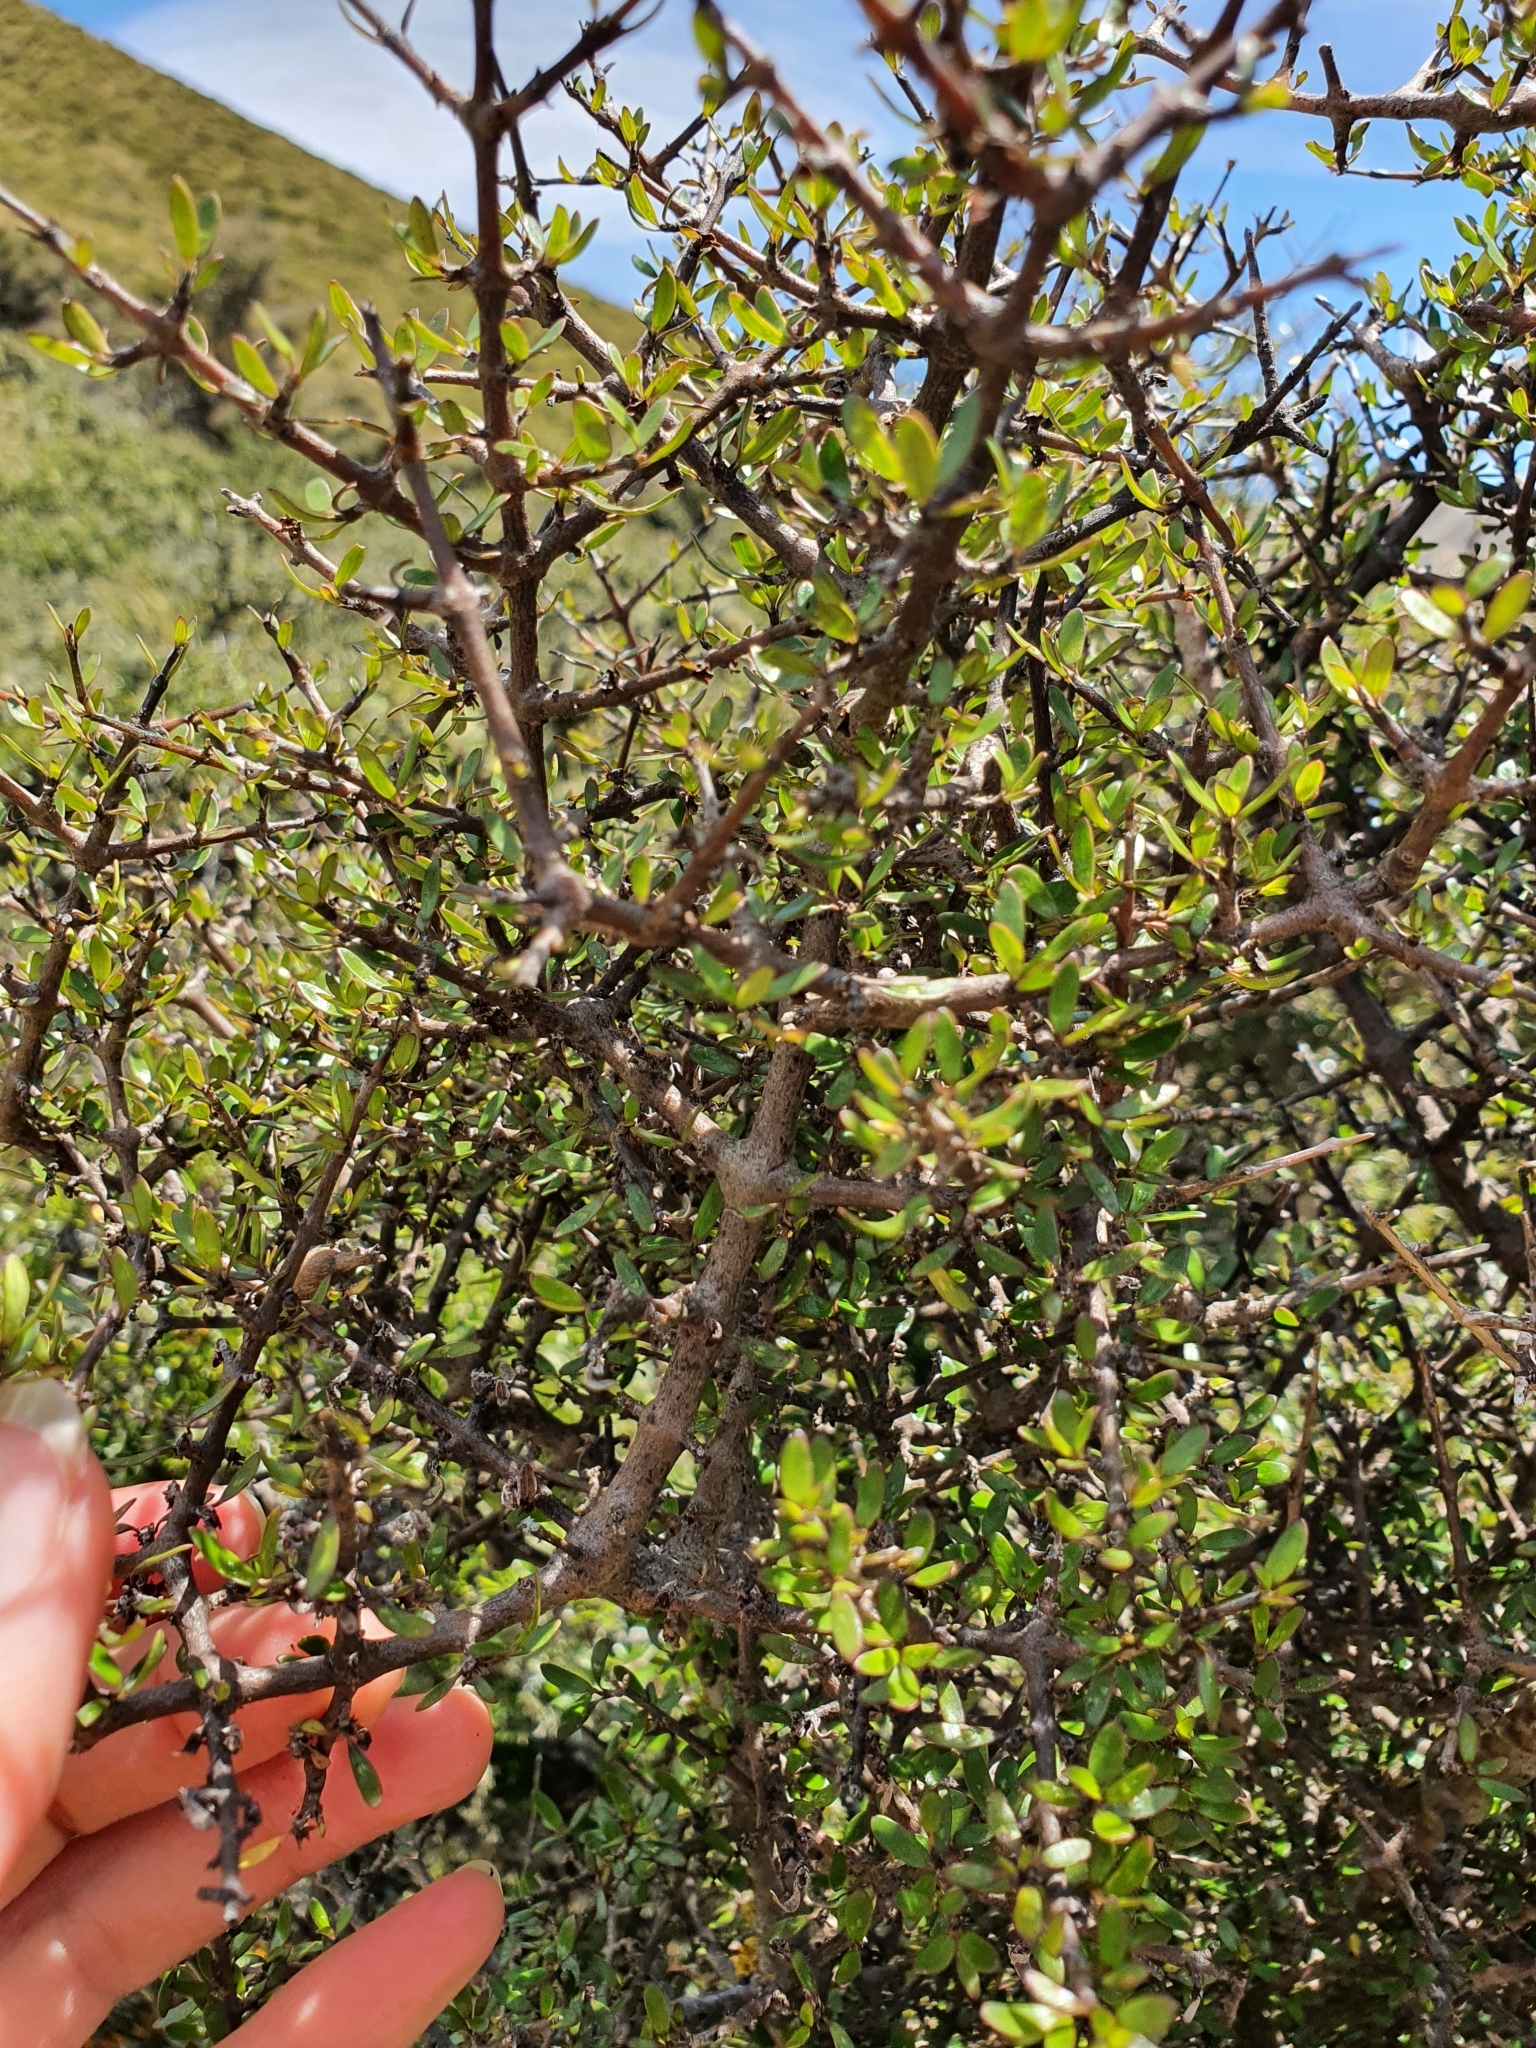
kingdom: Plantae
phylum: Tracheophyta
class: Magnoliopsida
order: Gentianales
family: Rubiaceae
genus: Coprosma
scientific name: Coprosma propinqua
